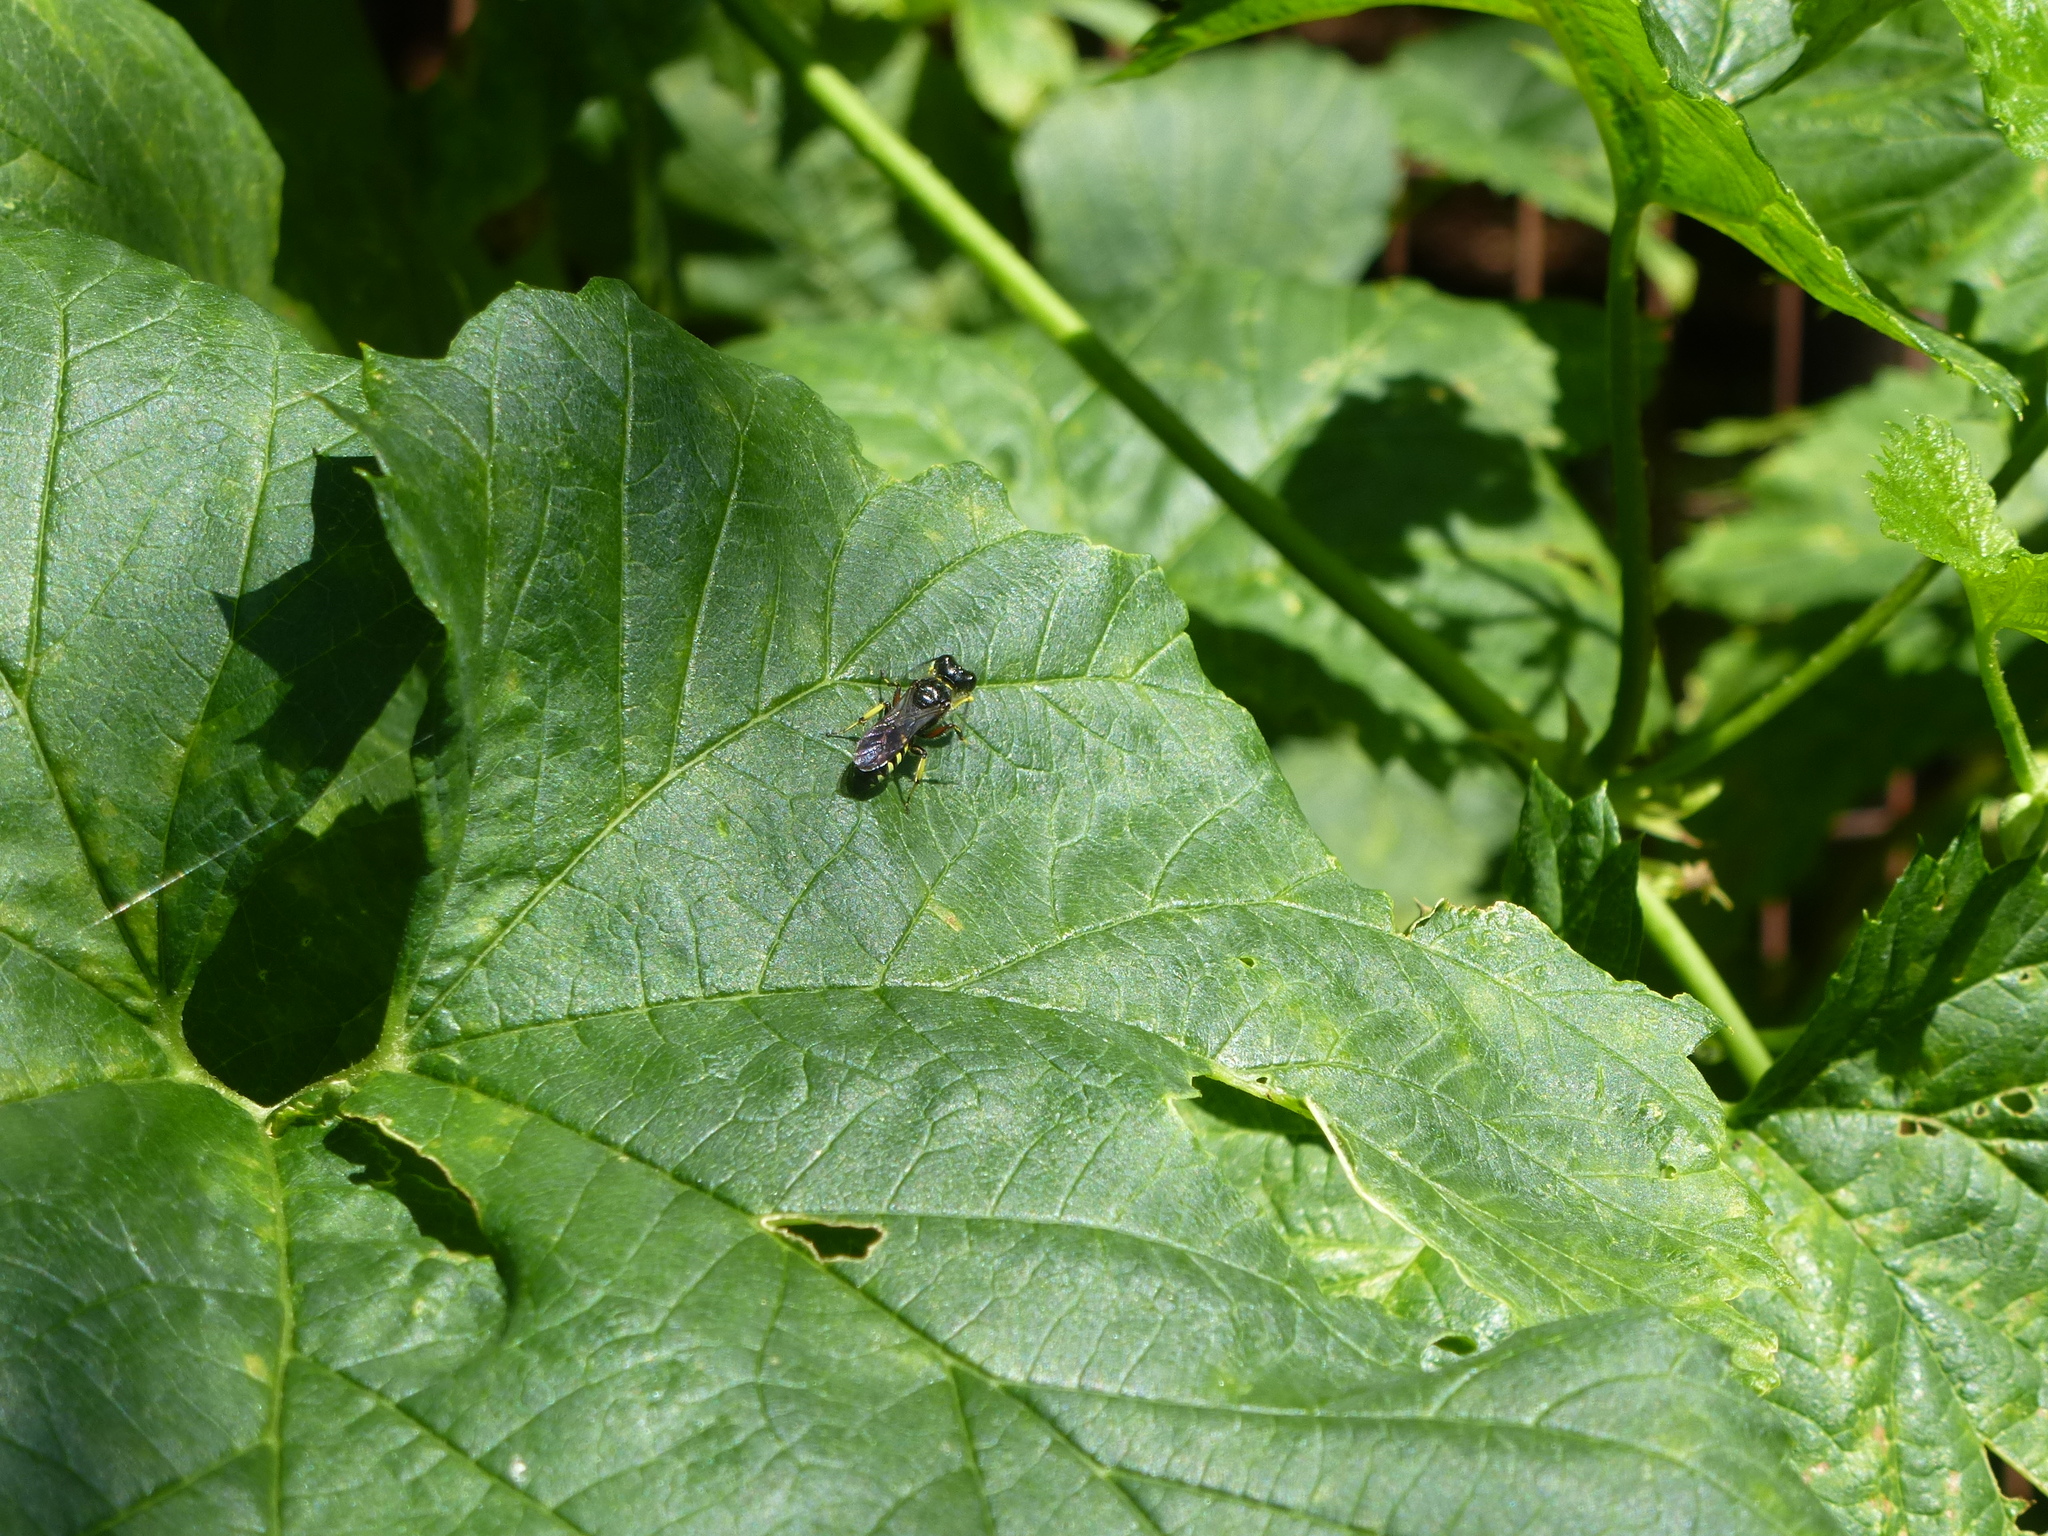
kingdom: Animalia
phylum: Arthropoda
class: Insecta
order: Hymenoptera
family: Crabronidae
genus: Ectemnius
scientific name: Ectemnius maculosus
